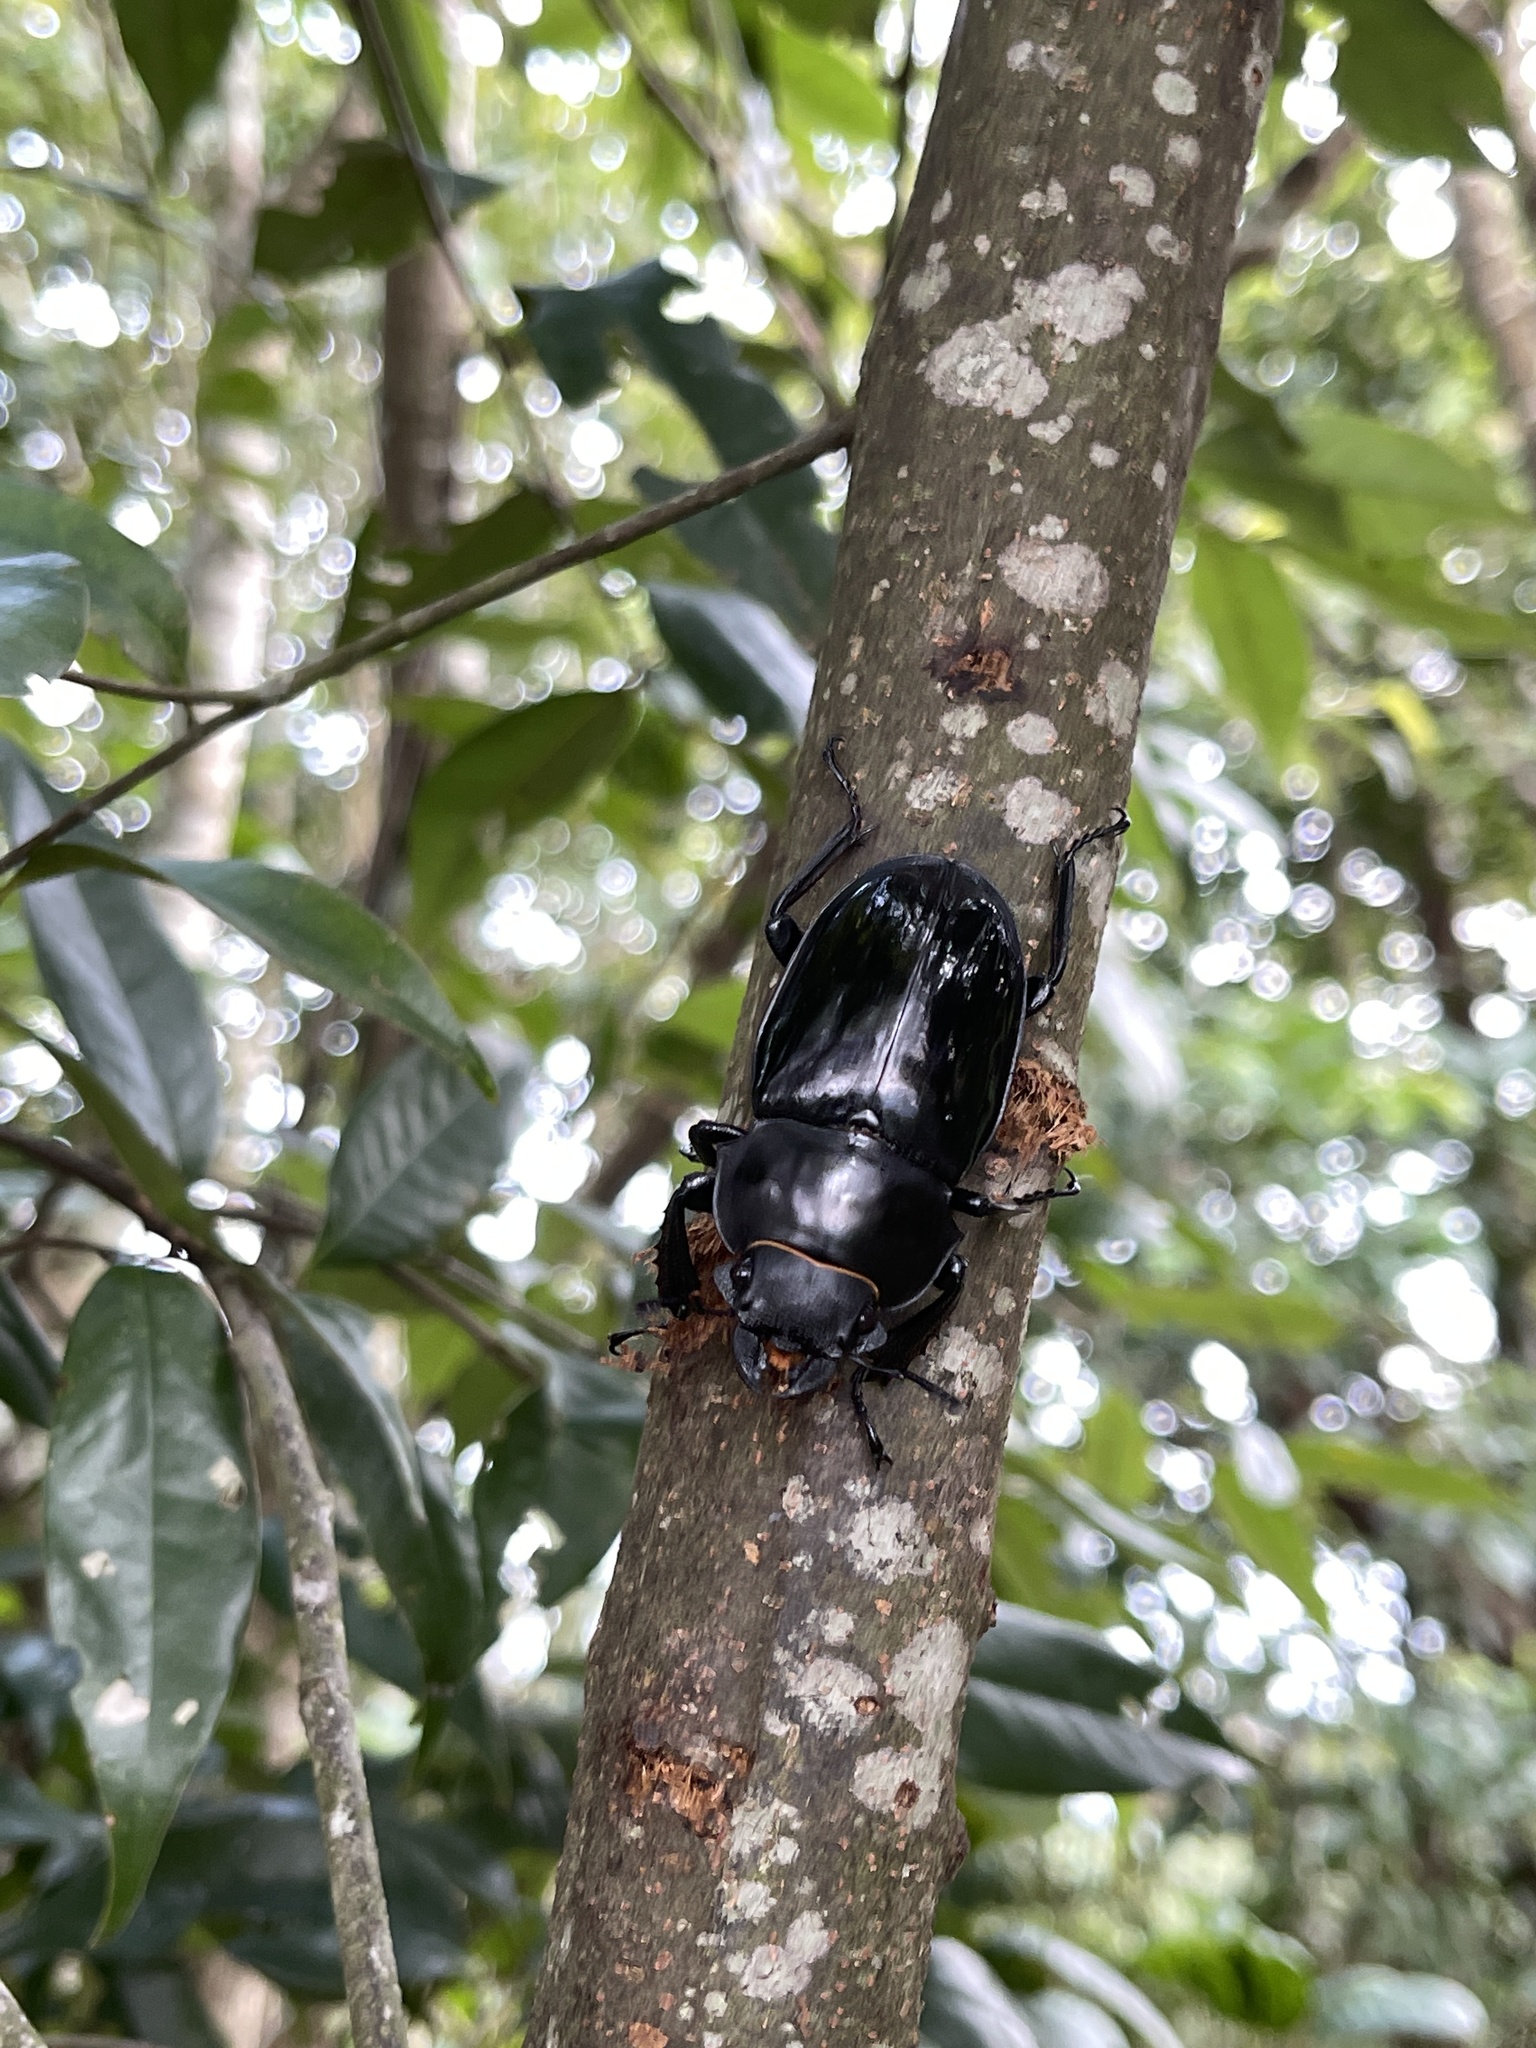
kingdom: Animalia
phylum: Arthropoda
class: Insecta
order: Coleoptera
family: Lucanidae
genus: Odontolabis
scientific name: Odontolabis siva
